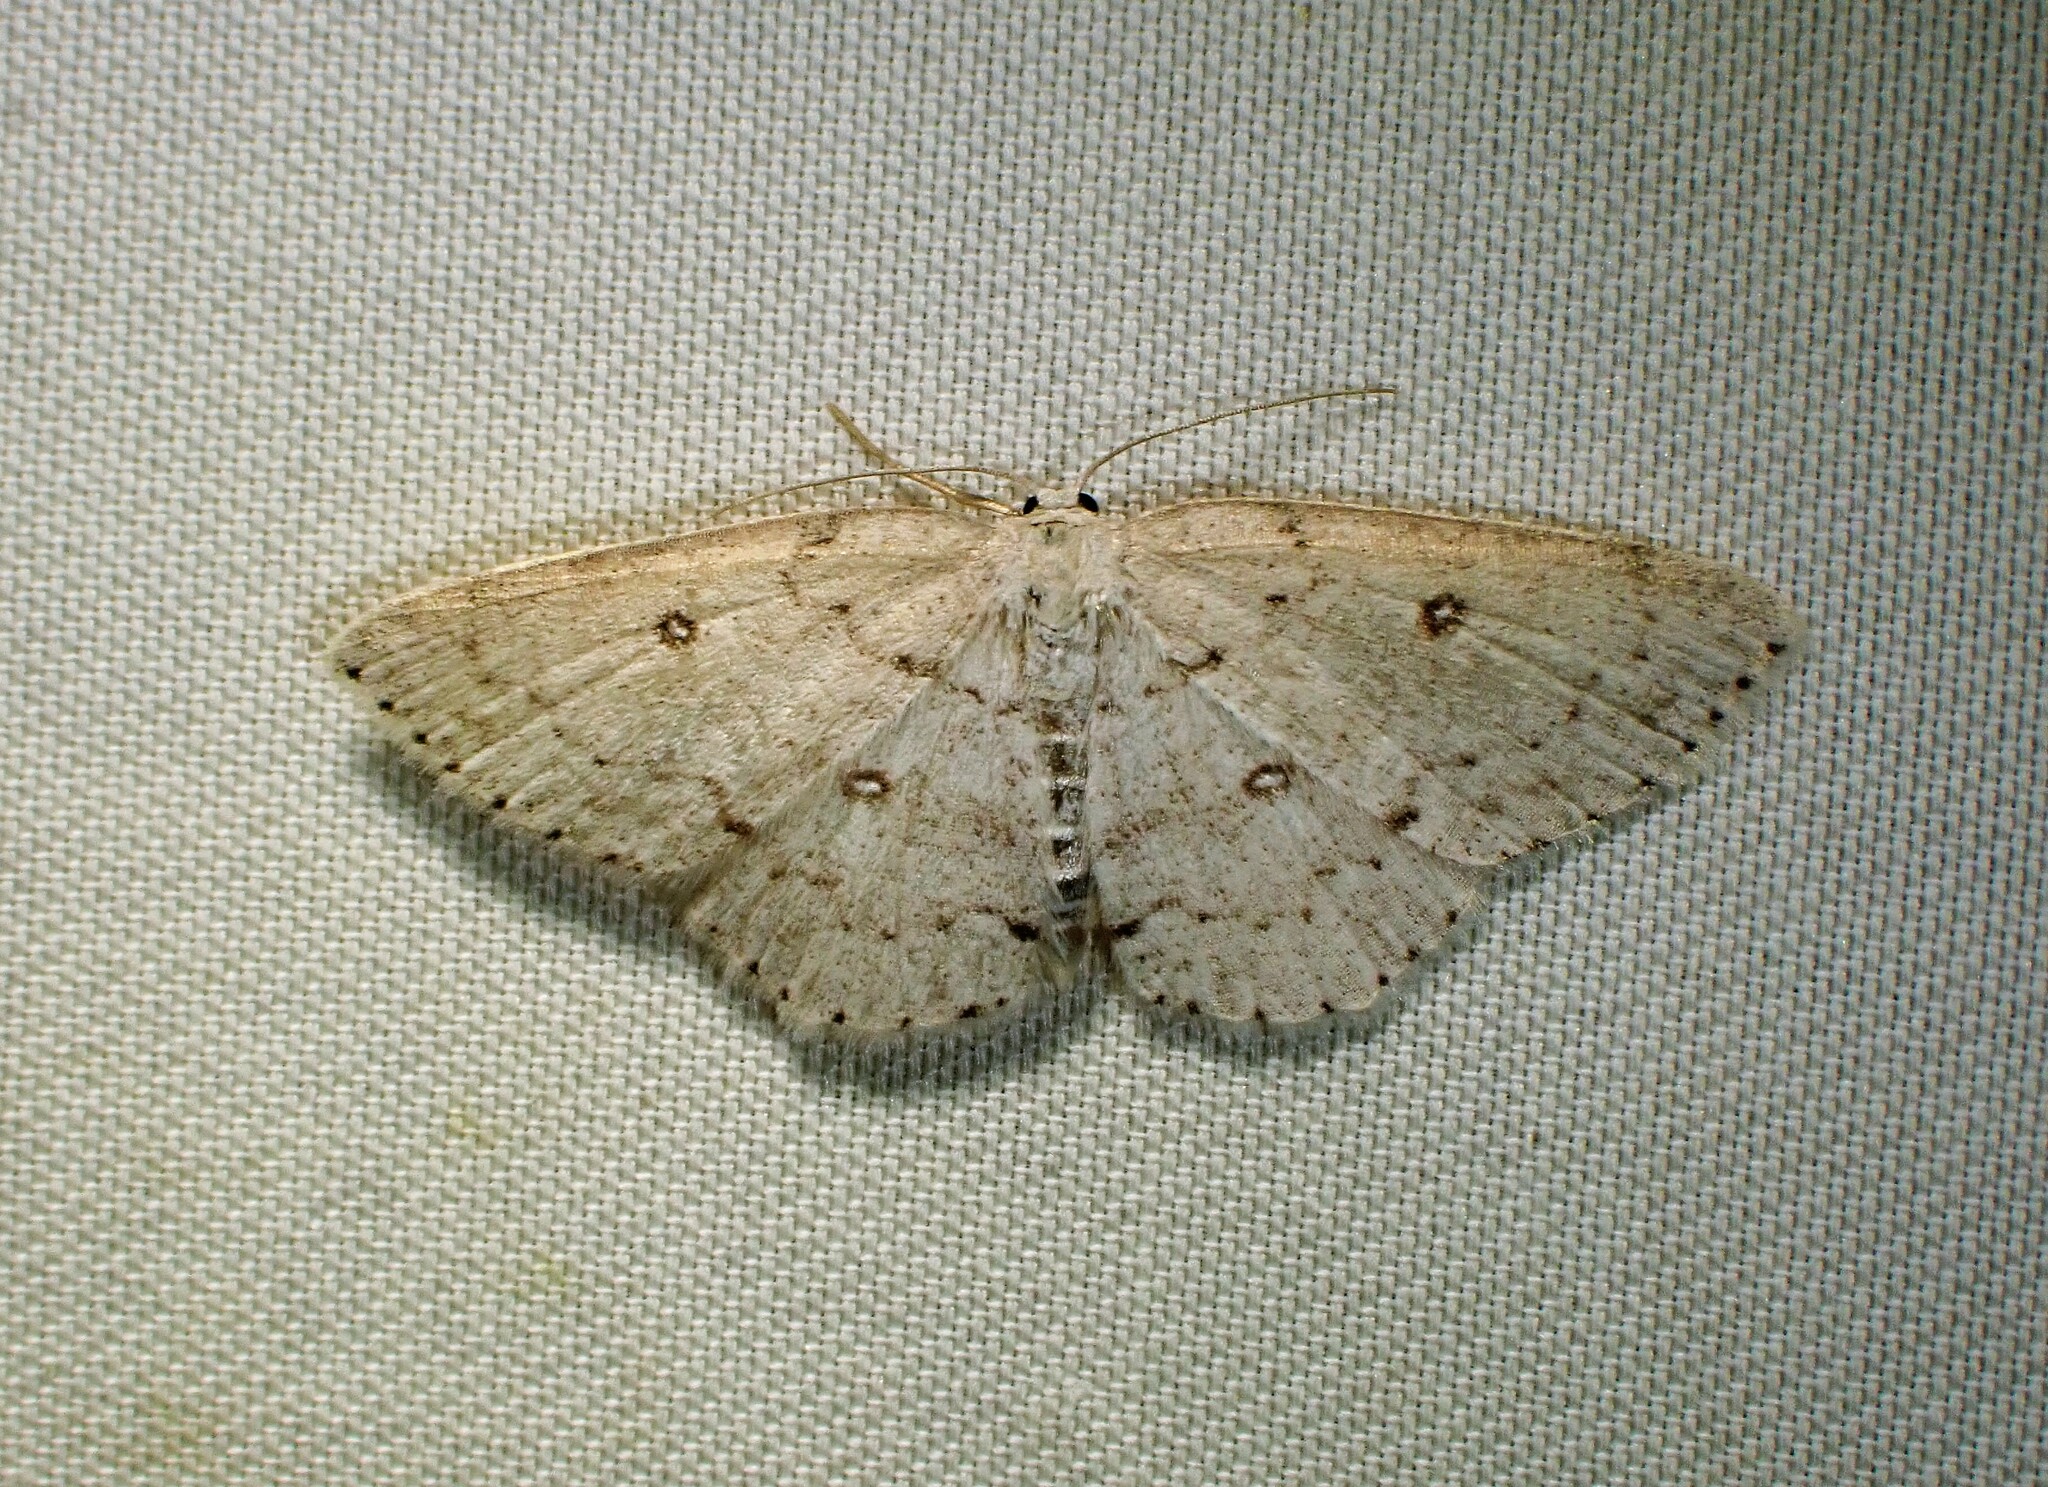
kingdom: Animalia
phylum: Arthropoda
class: Insecta
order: Lepidoptera
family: Geometridae
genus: Cyclophora
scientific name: Cyclophora pendulinaria
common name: Sweet fern geometer
